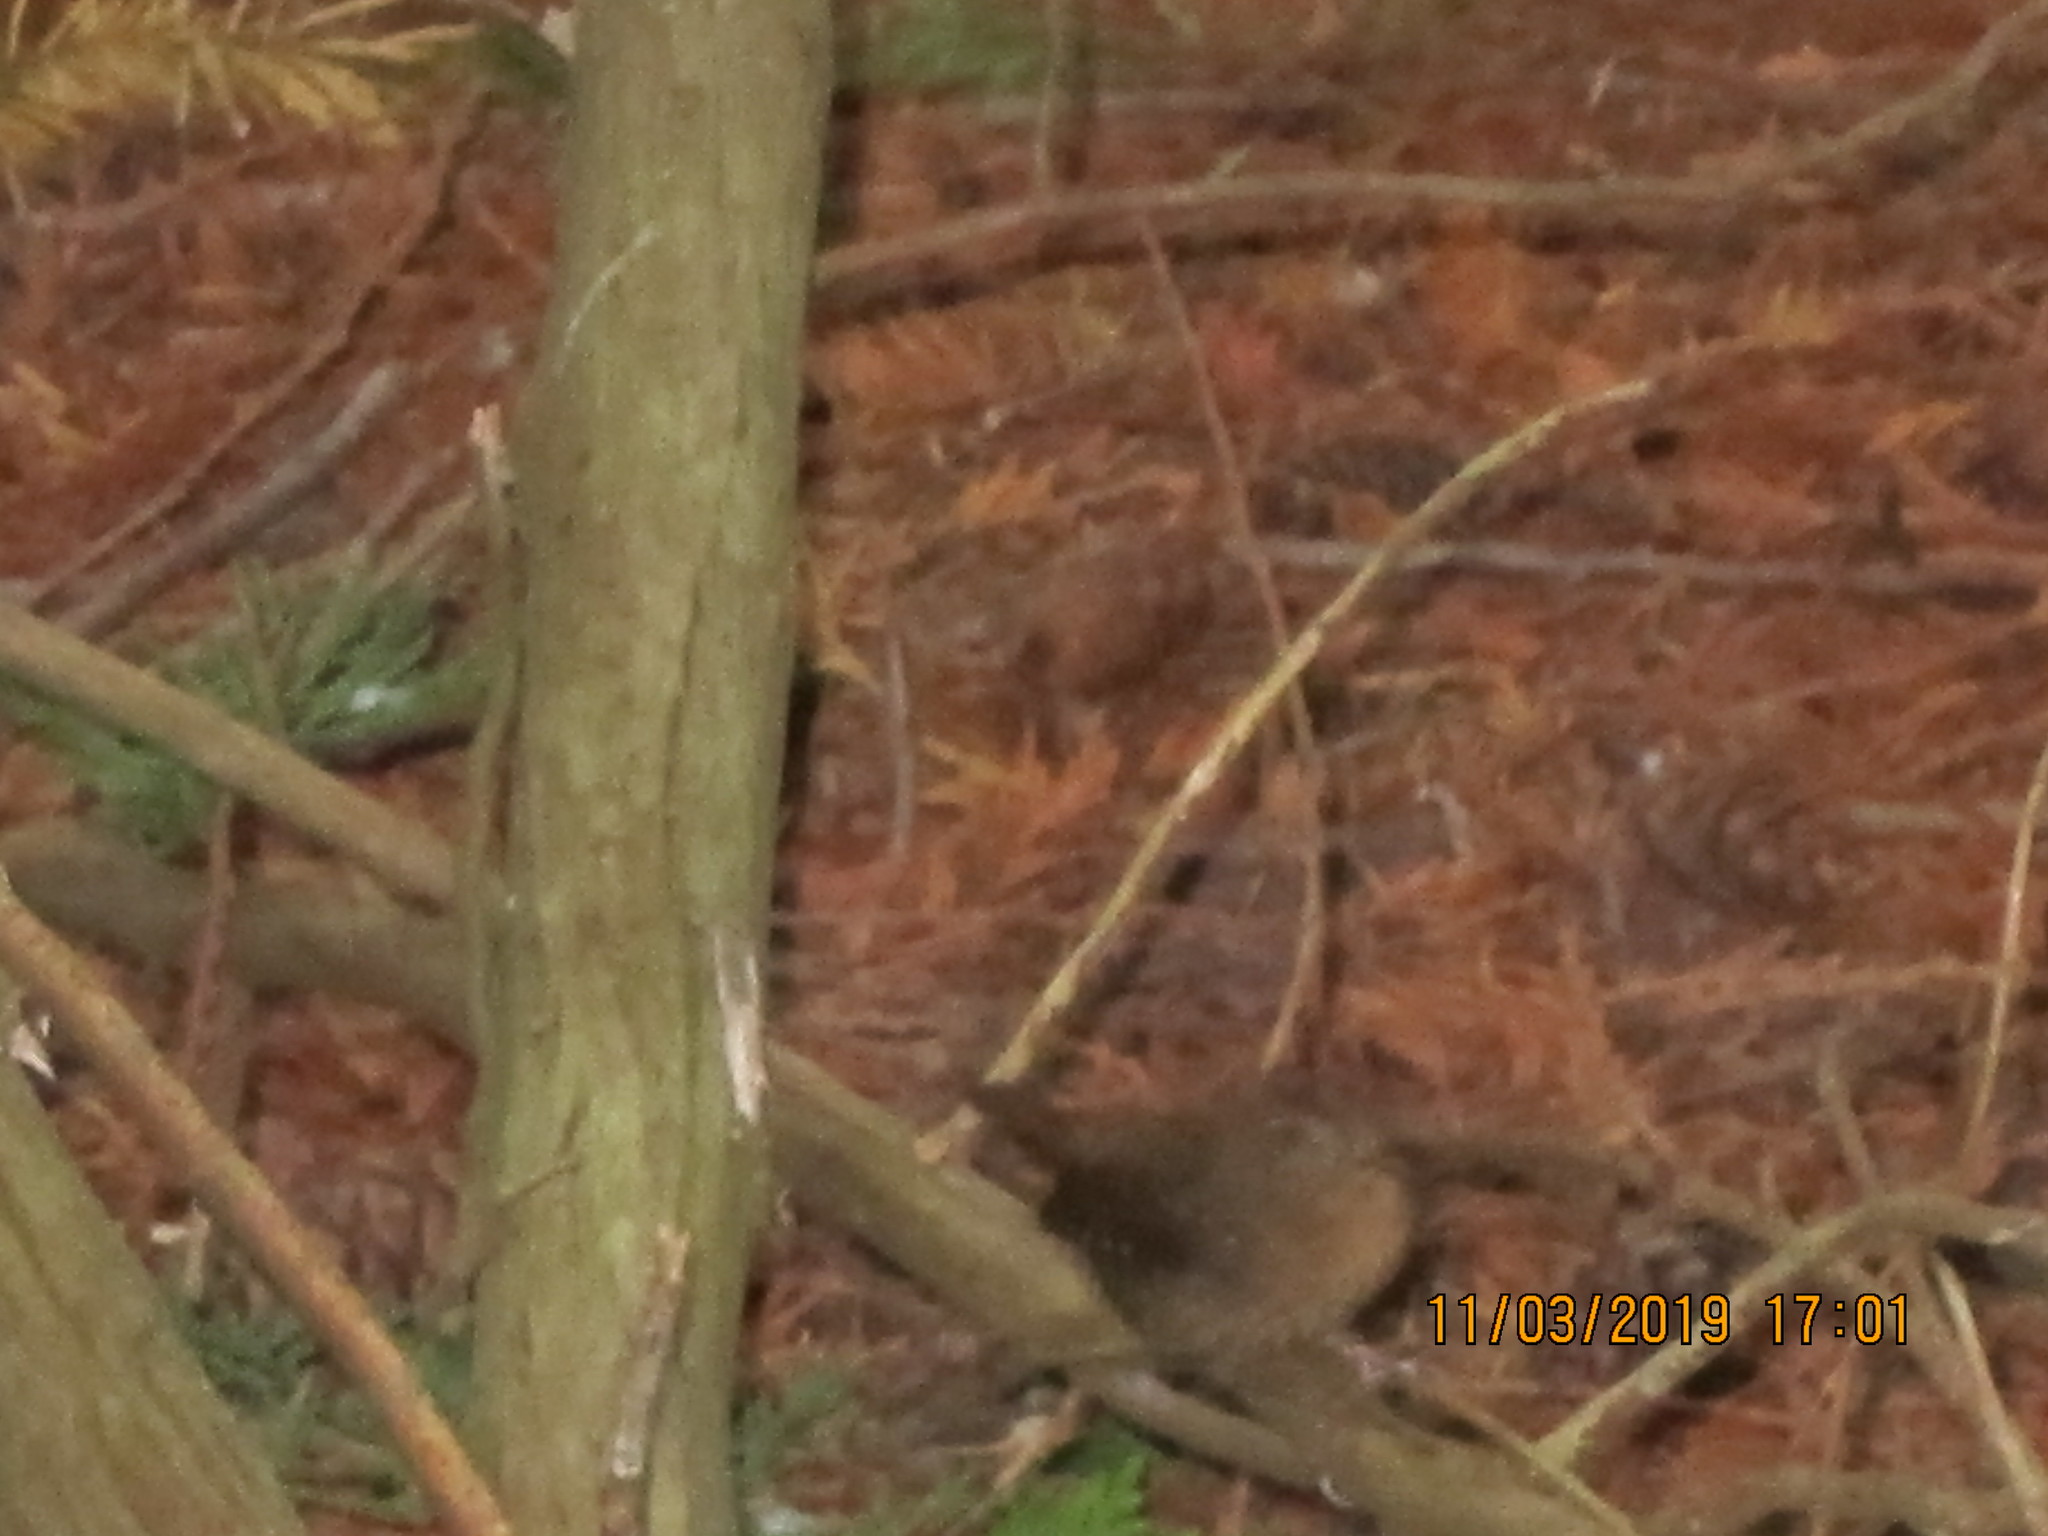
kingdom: Animalia
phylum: Chordata
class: Aves
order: Passeriformes
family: Troglodytidae
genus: Troglodytes
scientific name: Troglodytes pacificus
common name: Pacific wren
